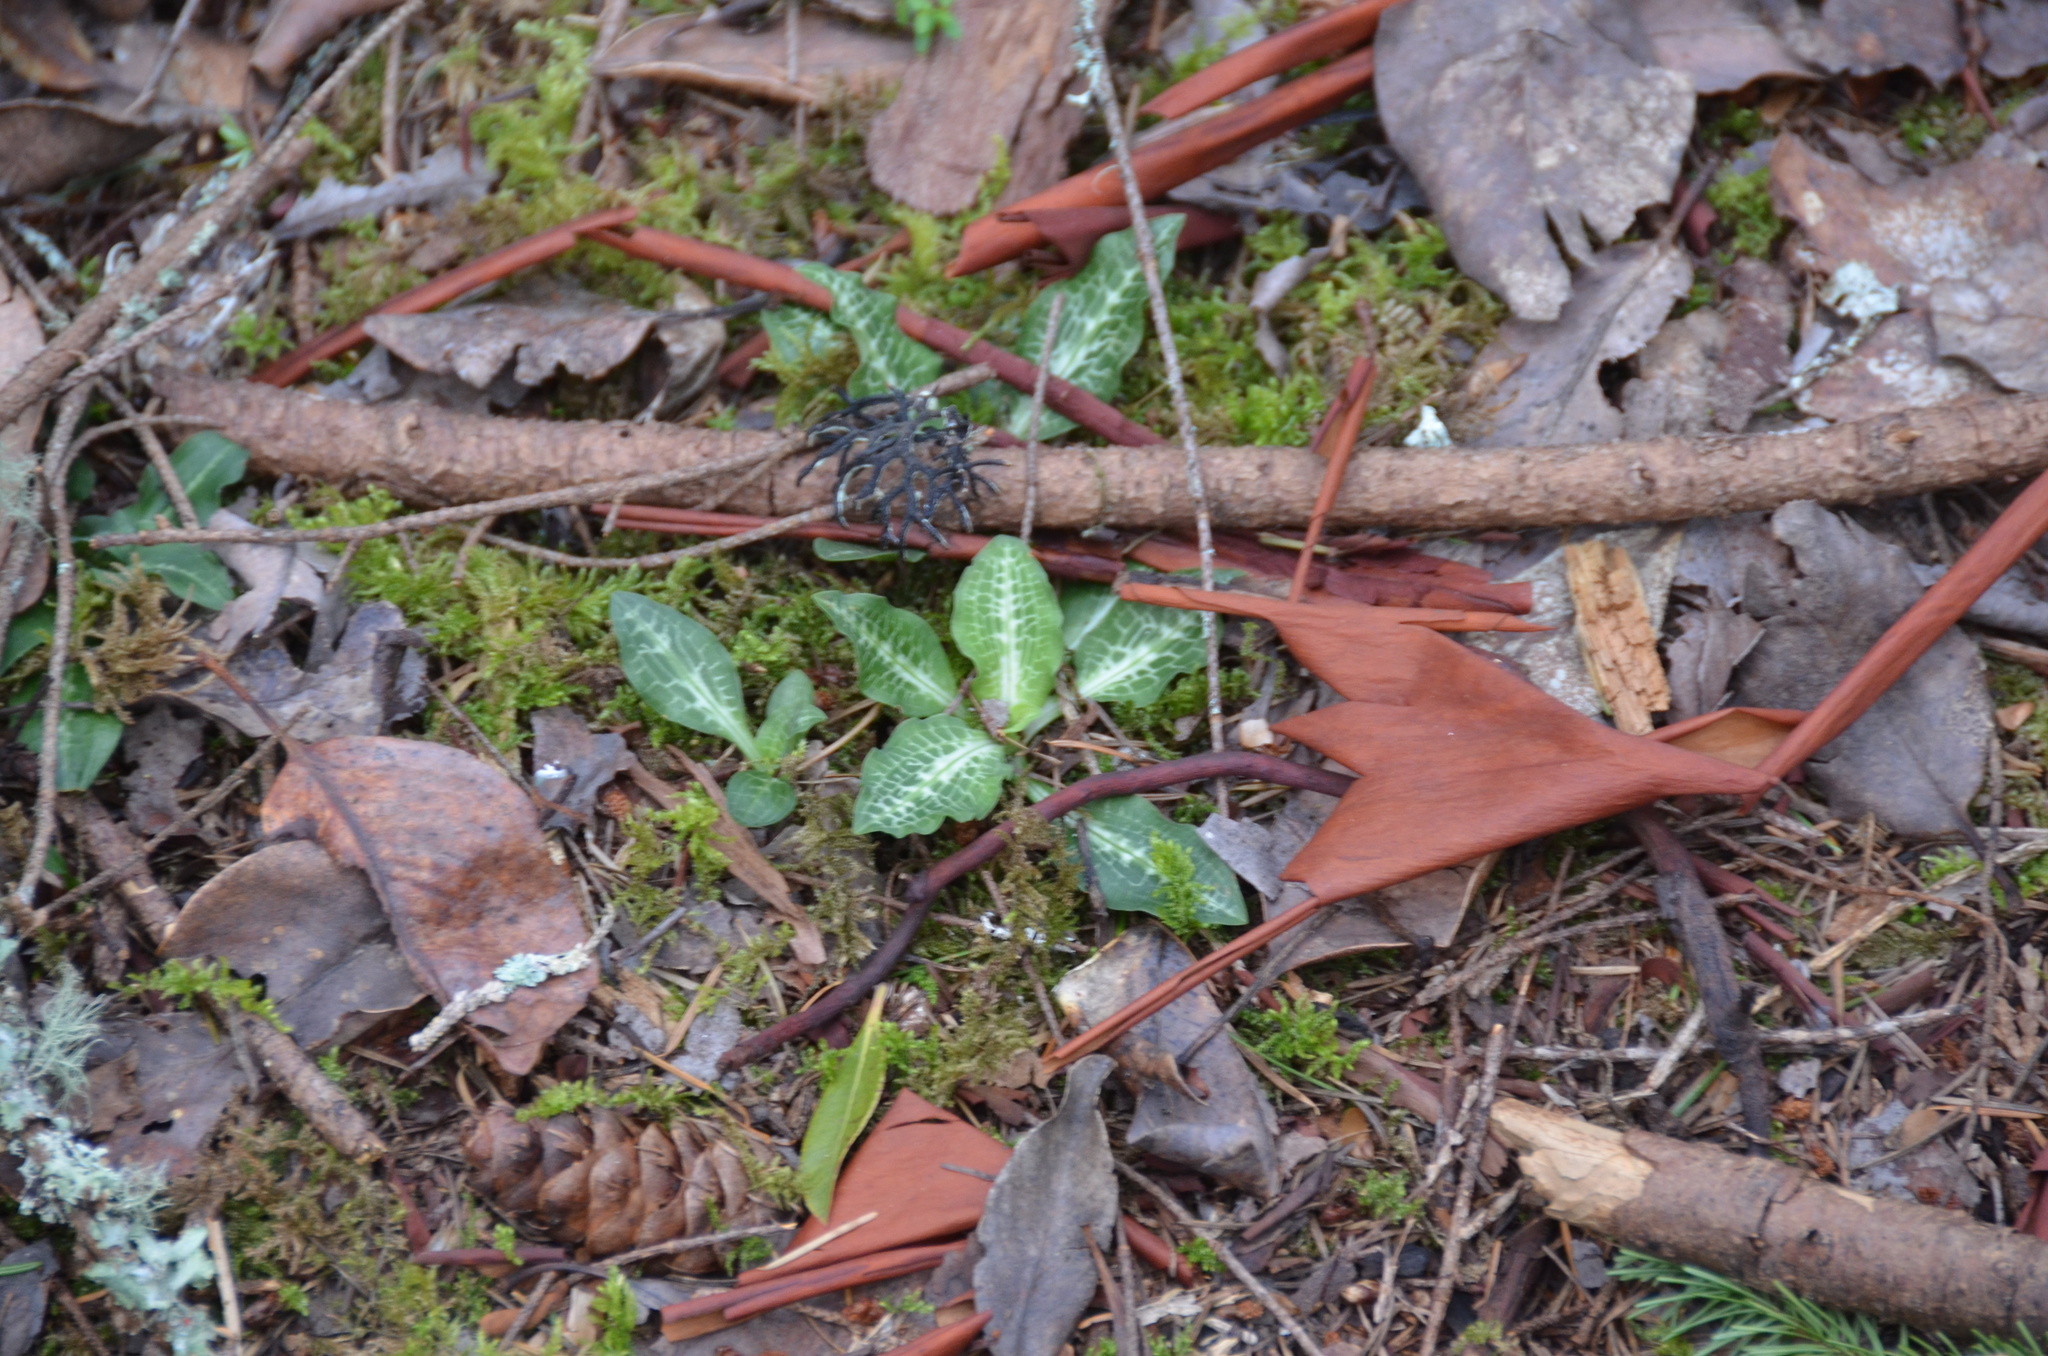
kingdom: Plantae
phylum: Tracheophyta
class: Liliopsida
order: Asparagales
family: Orchidaceae
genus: Goodyera
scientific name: Goodyera oblongifolia
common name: Giant rattlesnake-plantain
